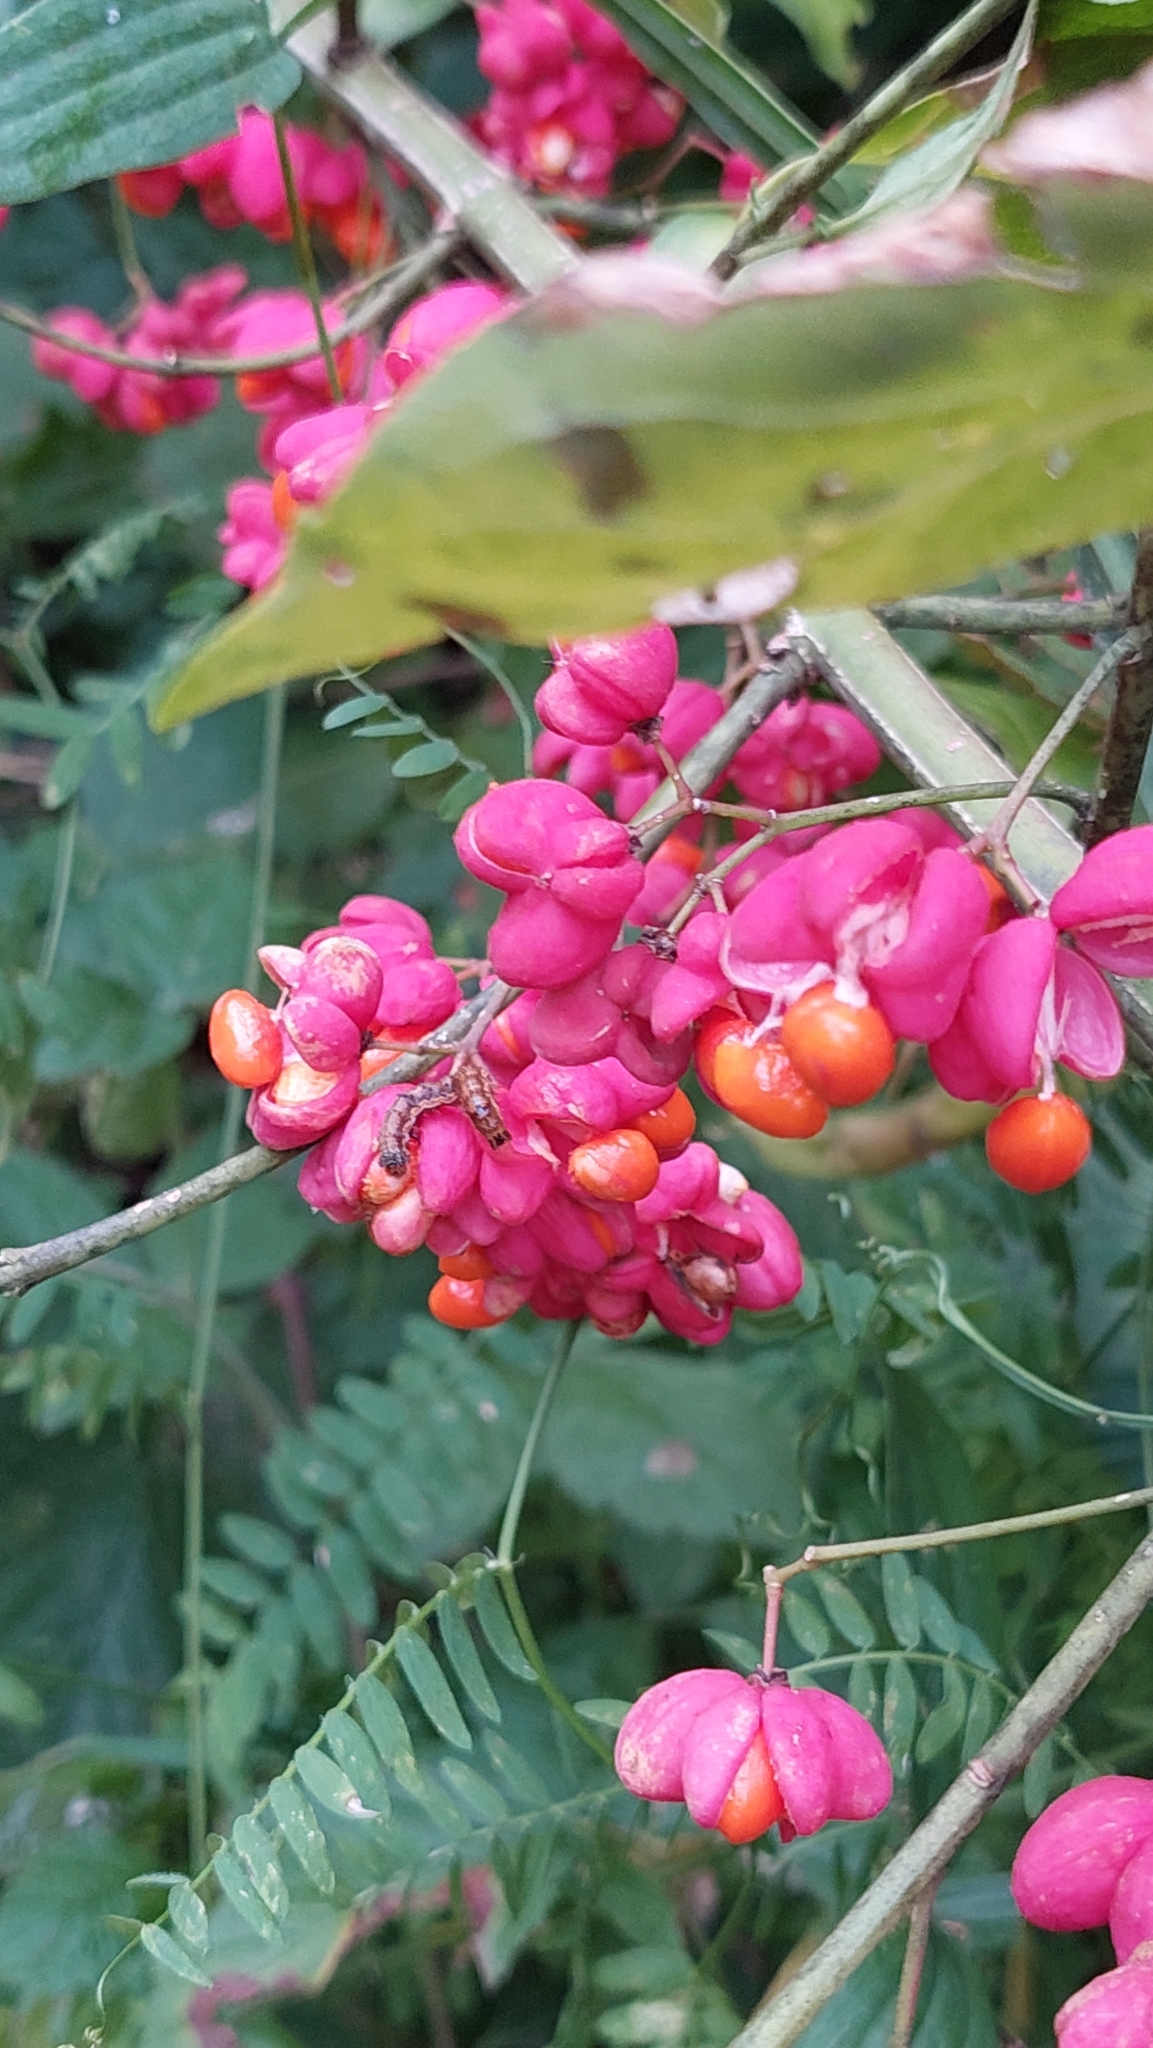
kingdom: Plantae
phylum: Tracheophyta
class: Magnoliopsida
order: Celastrales
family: Celastraceae
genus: Euonymus
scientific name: Euonymus europaeus
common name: Spindle
